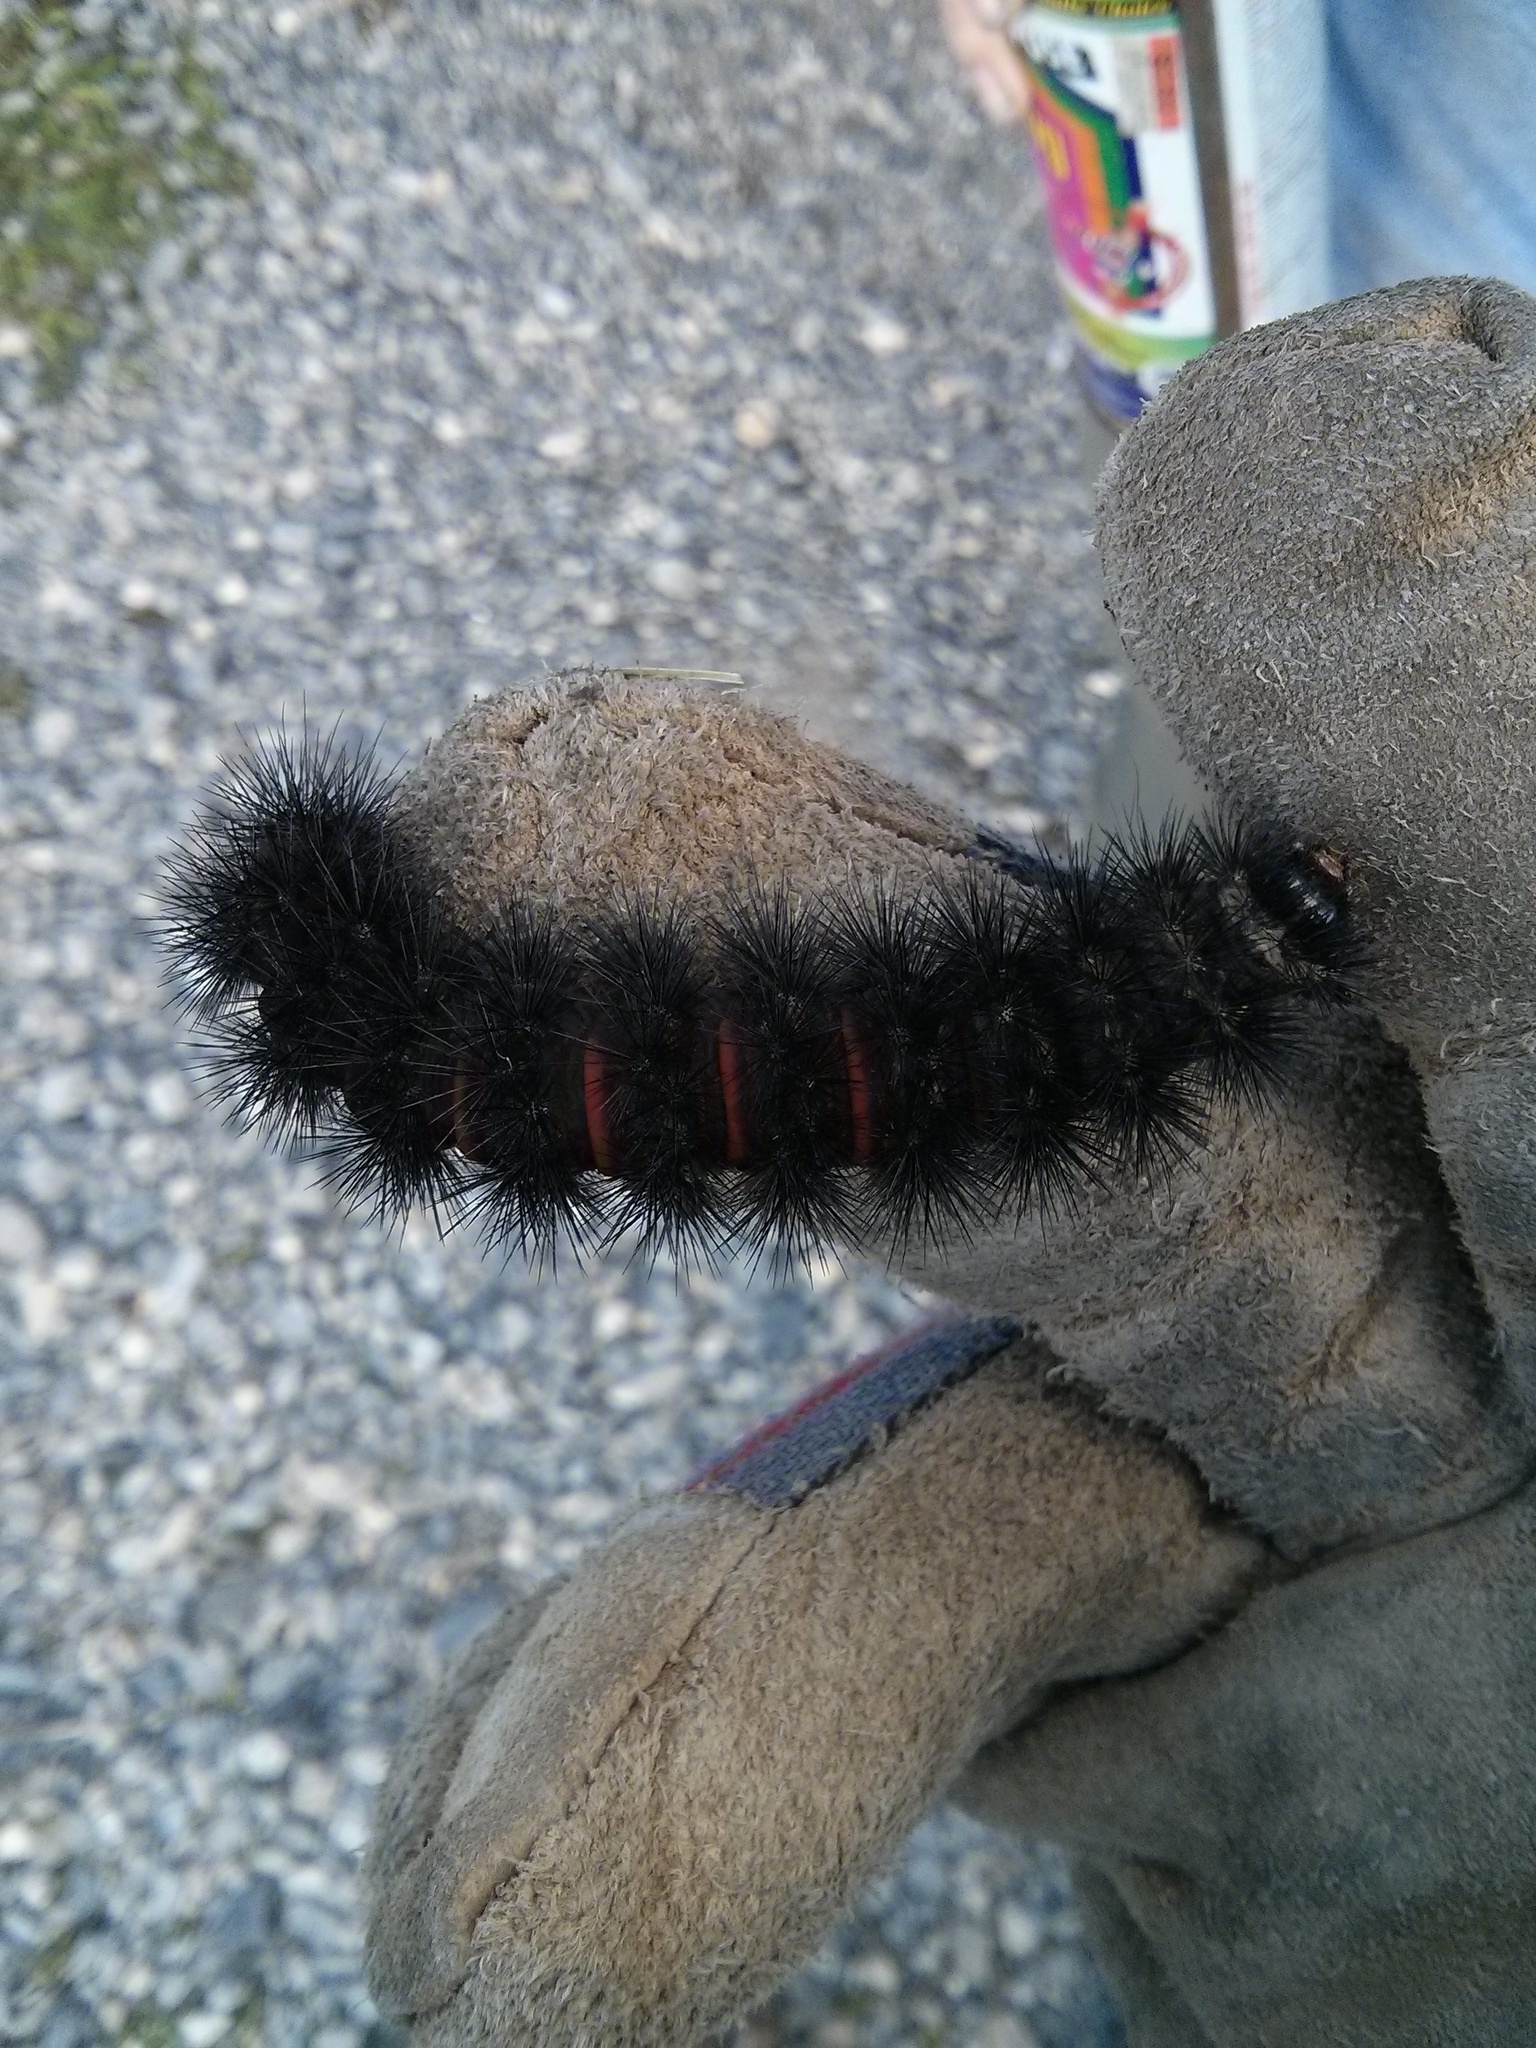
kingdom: Animalia
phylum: Arthropoda
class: Insecta
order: Lepidoptera
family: Erebidae
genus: Hypercompe
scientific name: Hypercompe scribonia
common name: Giant leopard moth
